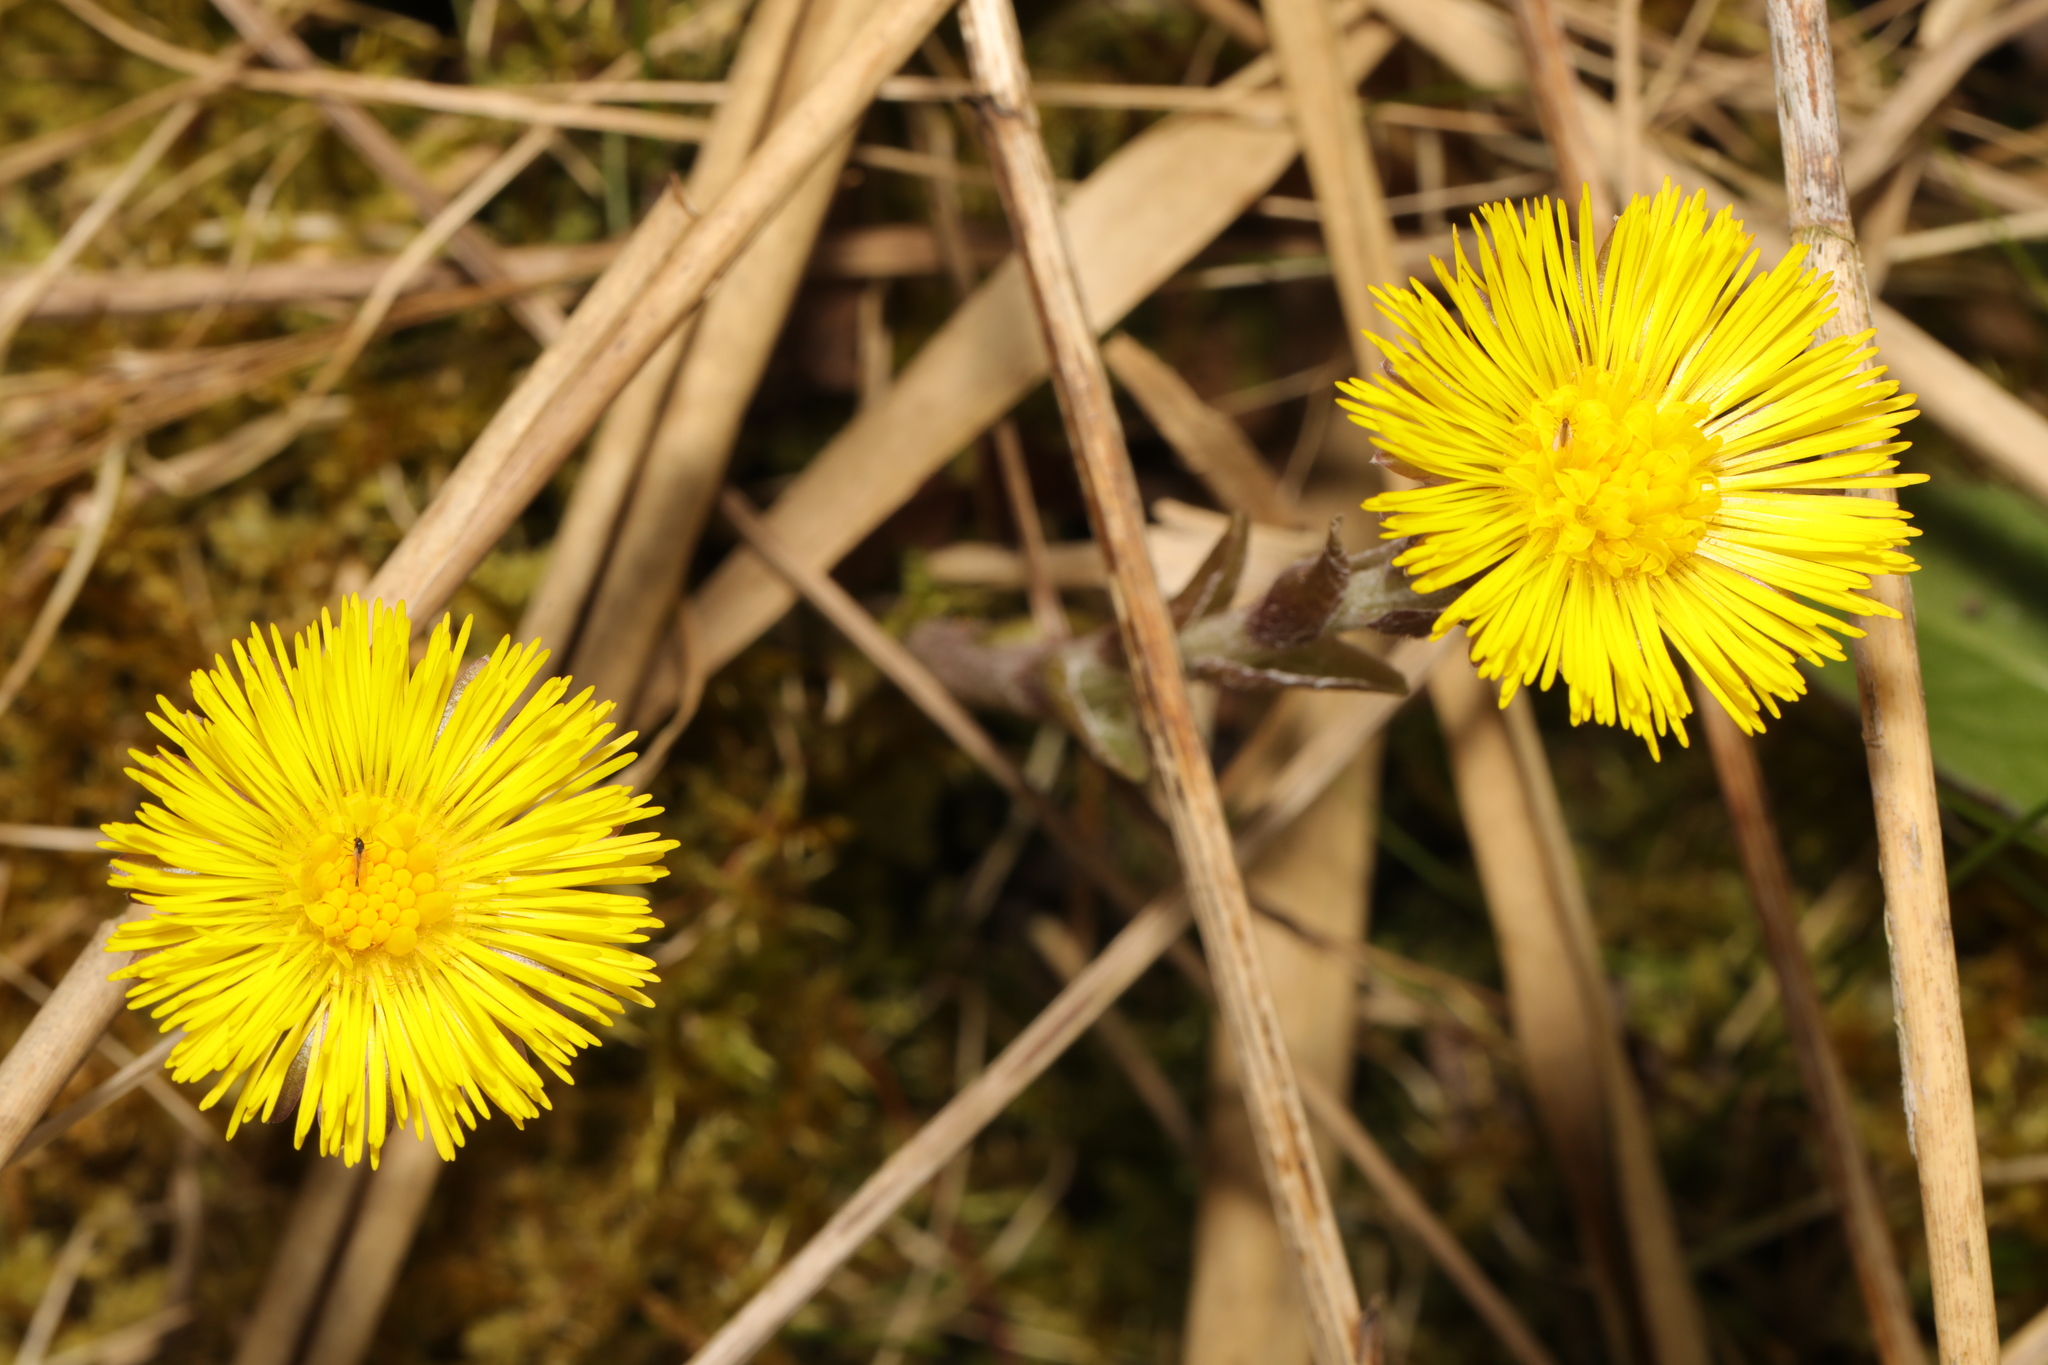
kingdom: Plantae
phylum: Tracheophyta
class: Magnoliopsida
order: Asterales
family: Asteraceae
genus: Tussilago
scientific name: Tussilago farfara
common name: Coltsfoot
